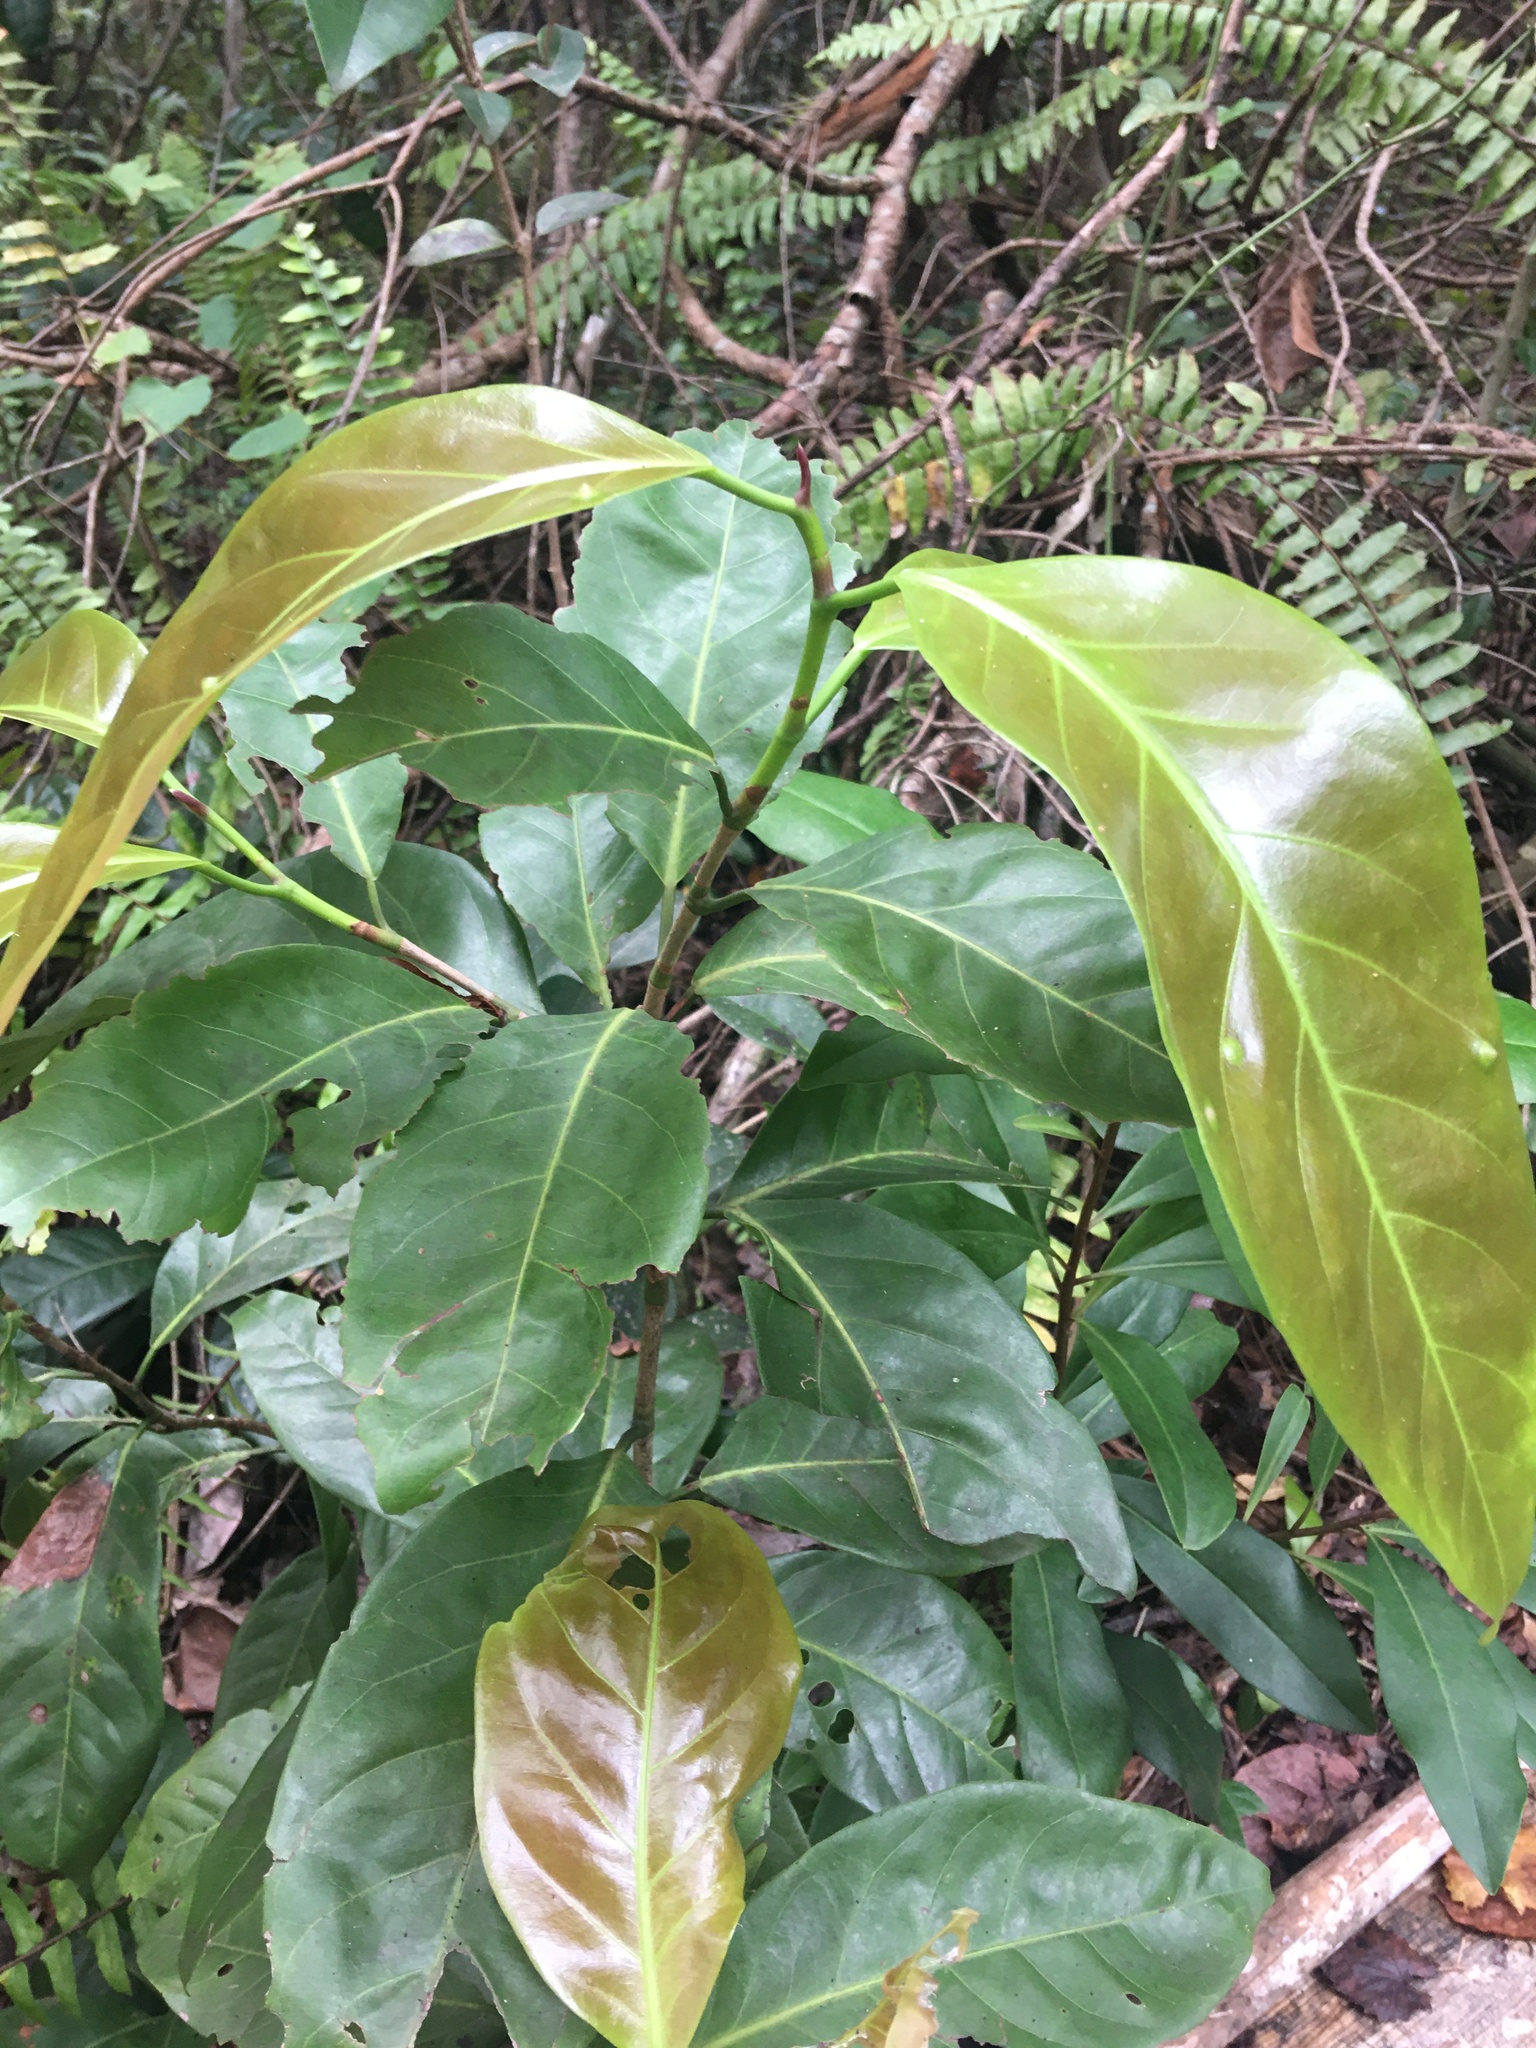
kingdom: Plantae
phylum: Tracheophyta
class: Magnoliopsida
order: Caryophyllales
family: Polygonaceae
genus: Coccoloba
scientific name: Coccoloba diversifolia
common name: Pigeon-plum
